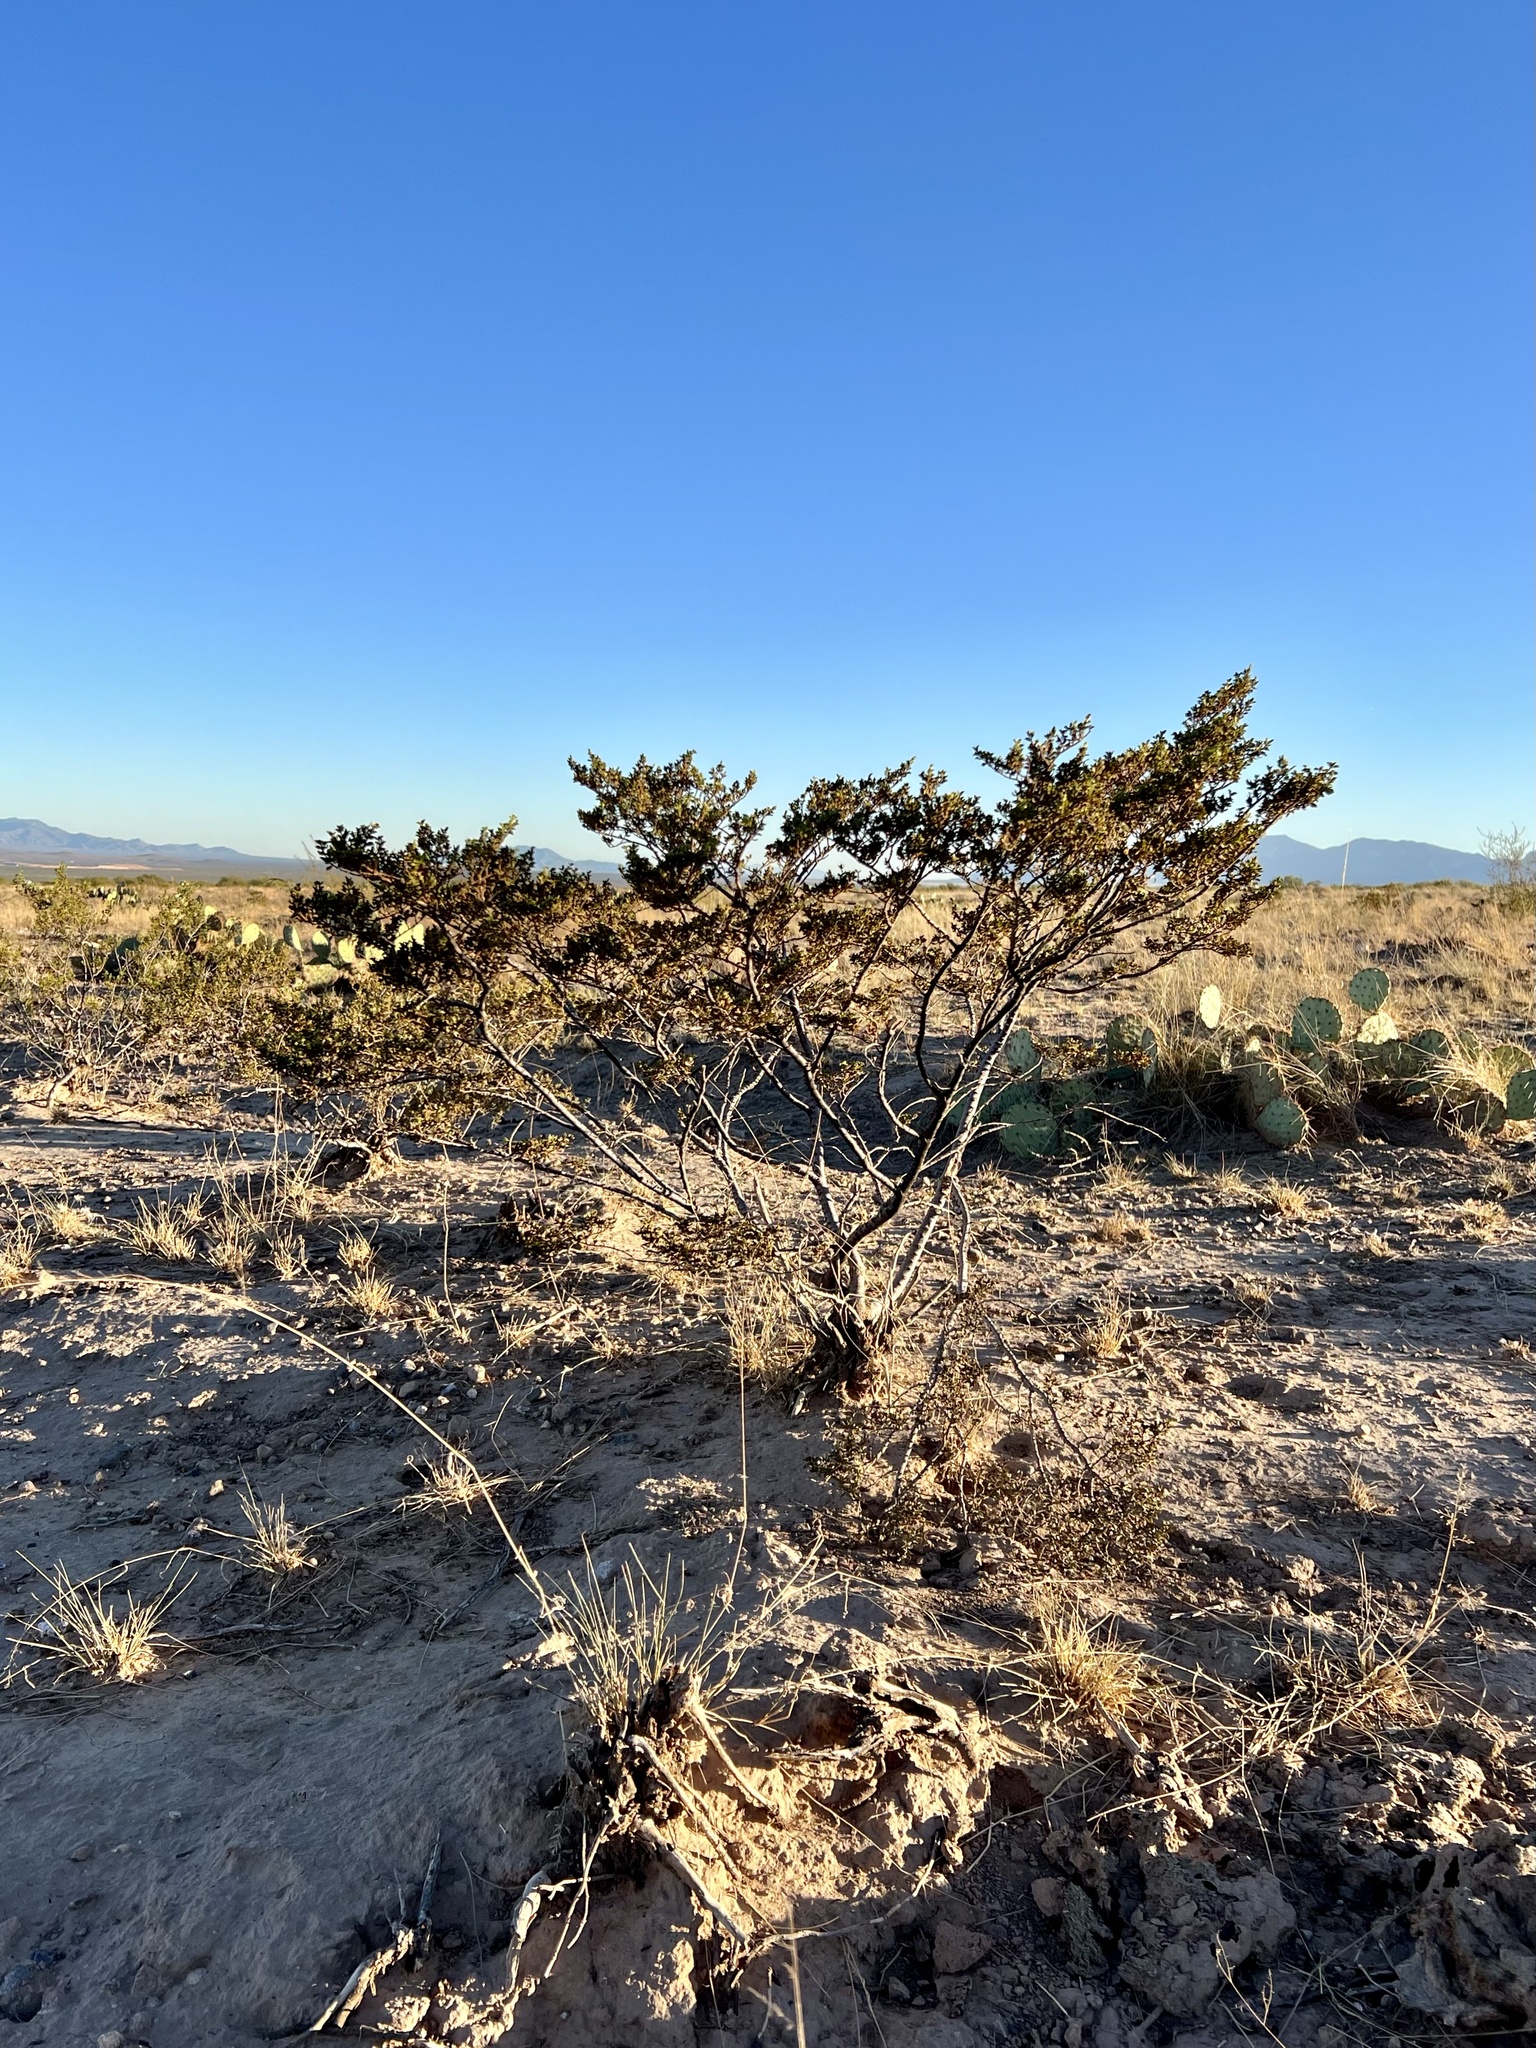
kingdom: Plantae
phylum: Tracheophyta
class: Magnoliopsida
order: Zygophyllales
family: Zygophyllaceae
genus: Larrea
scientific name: Larrea tridentata
